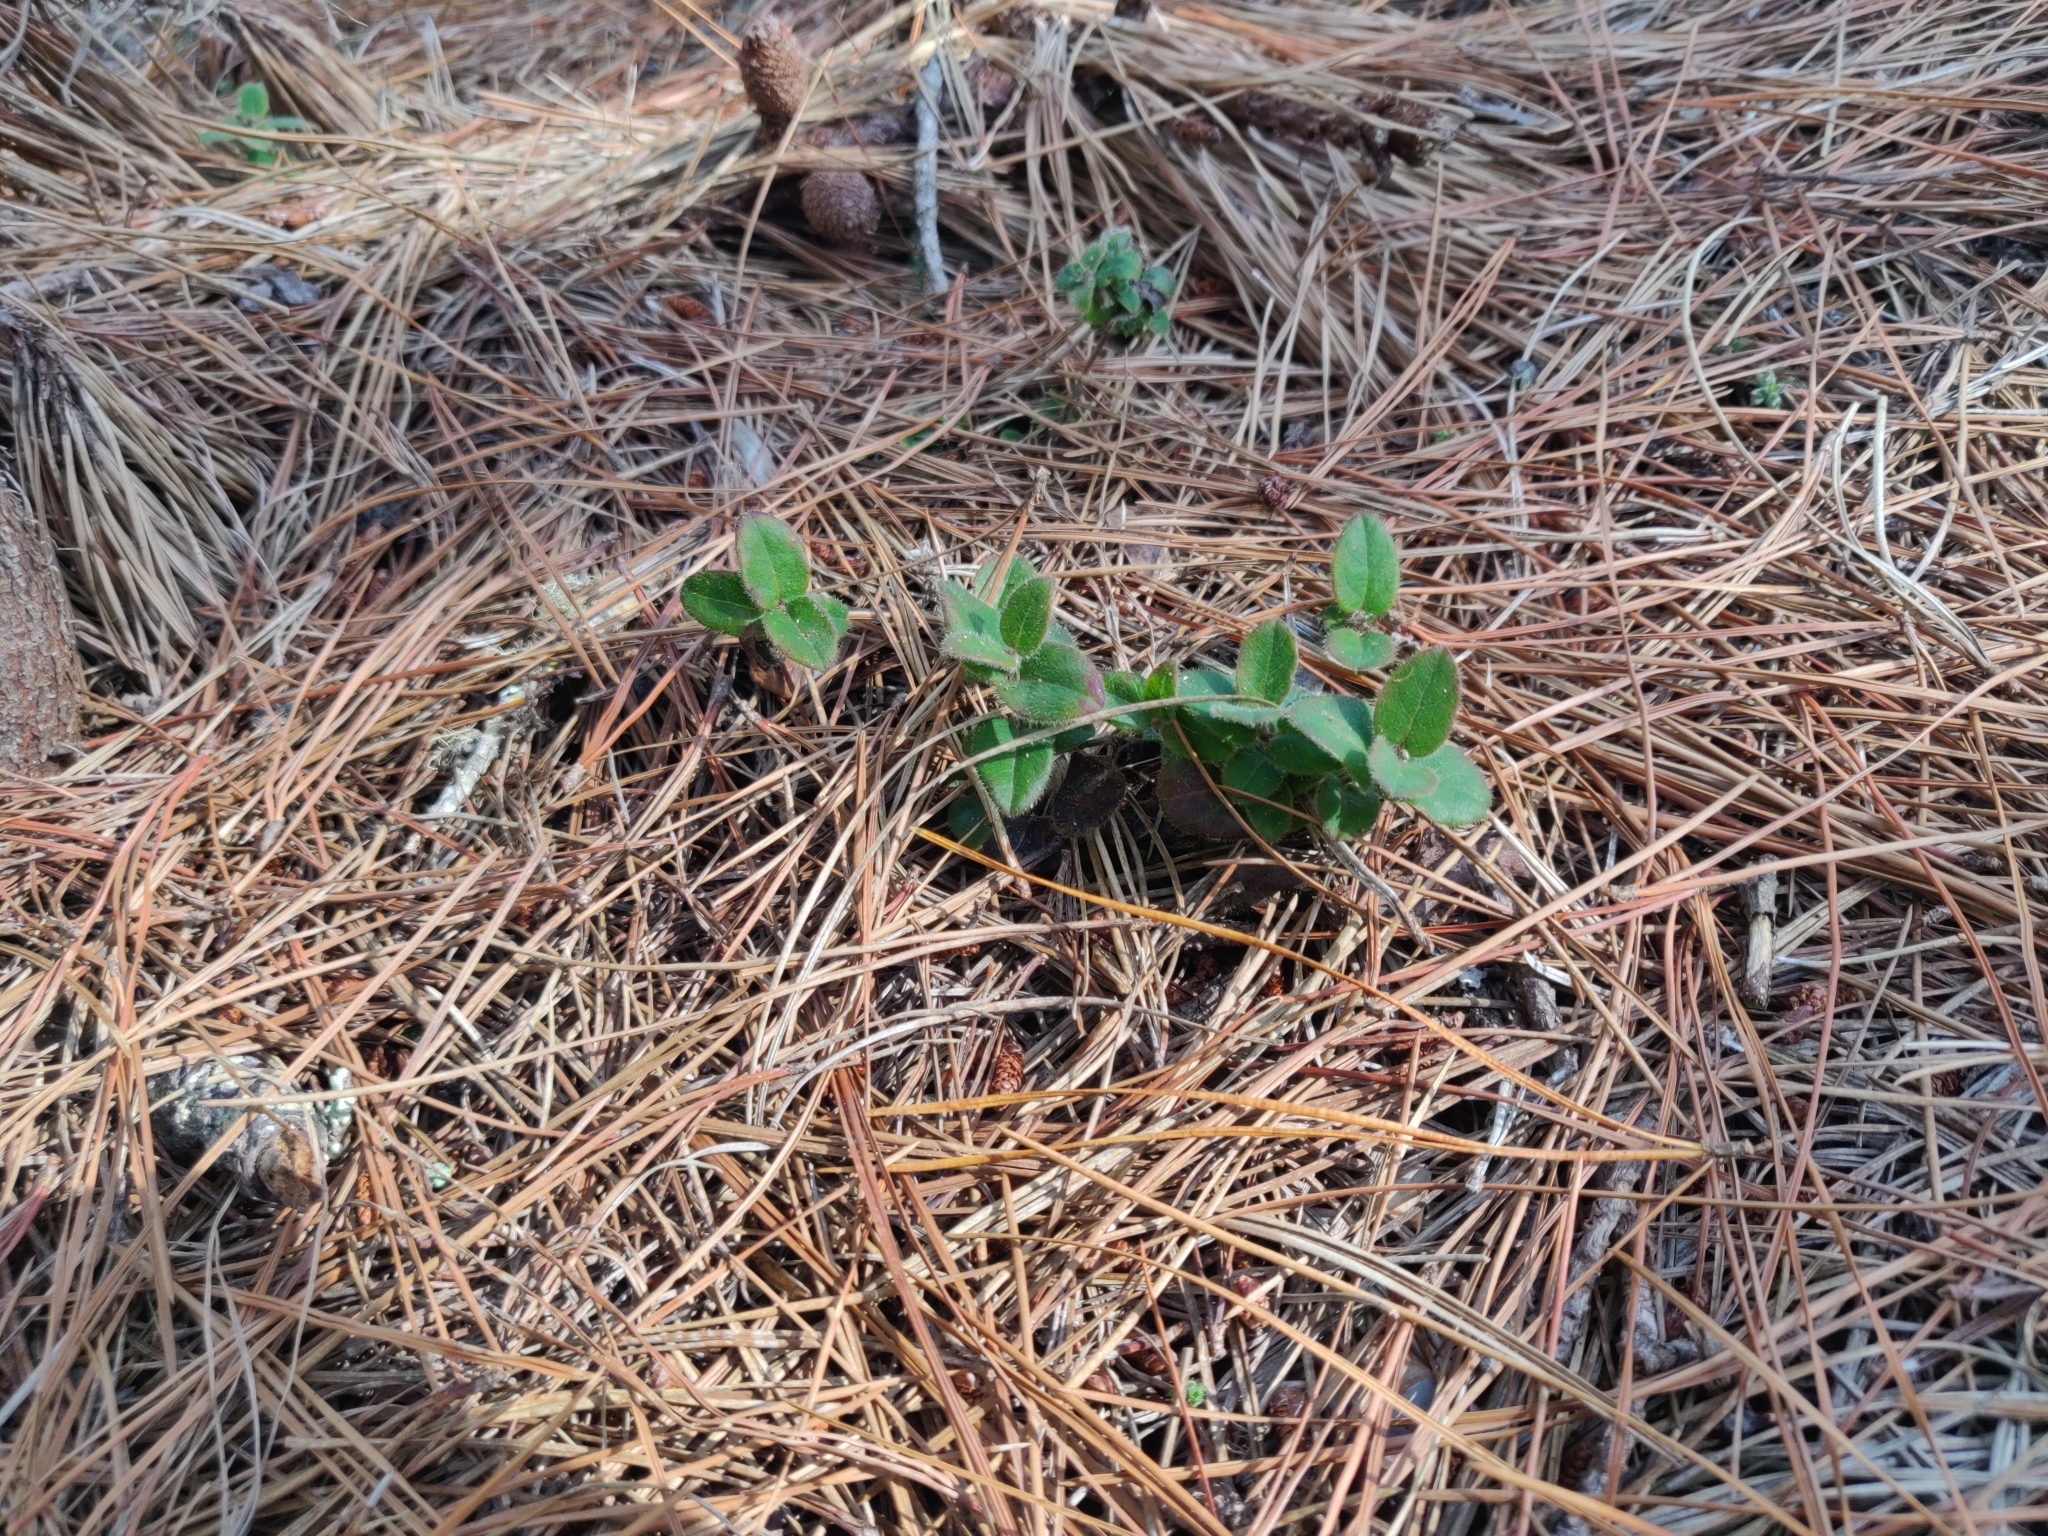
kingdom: Plantae
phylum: Tracheophyta
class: Magnoliopsida
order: Dipsacales
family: Caprifoliaceae
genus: Lonicera
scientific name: Lonicera hispidula
